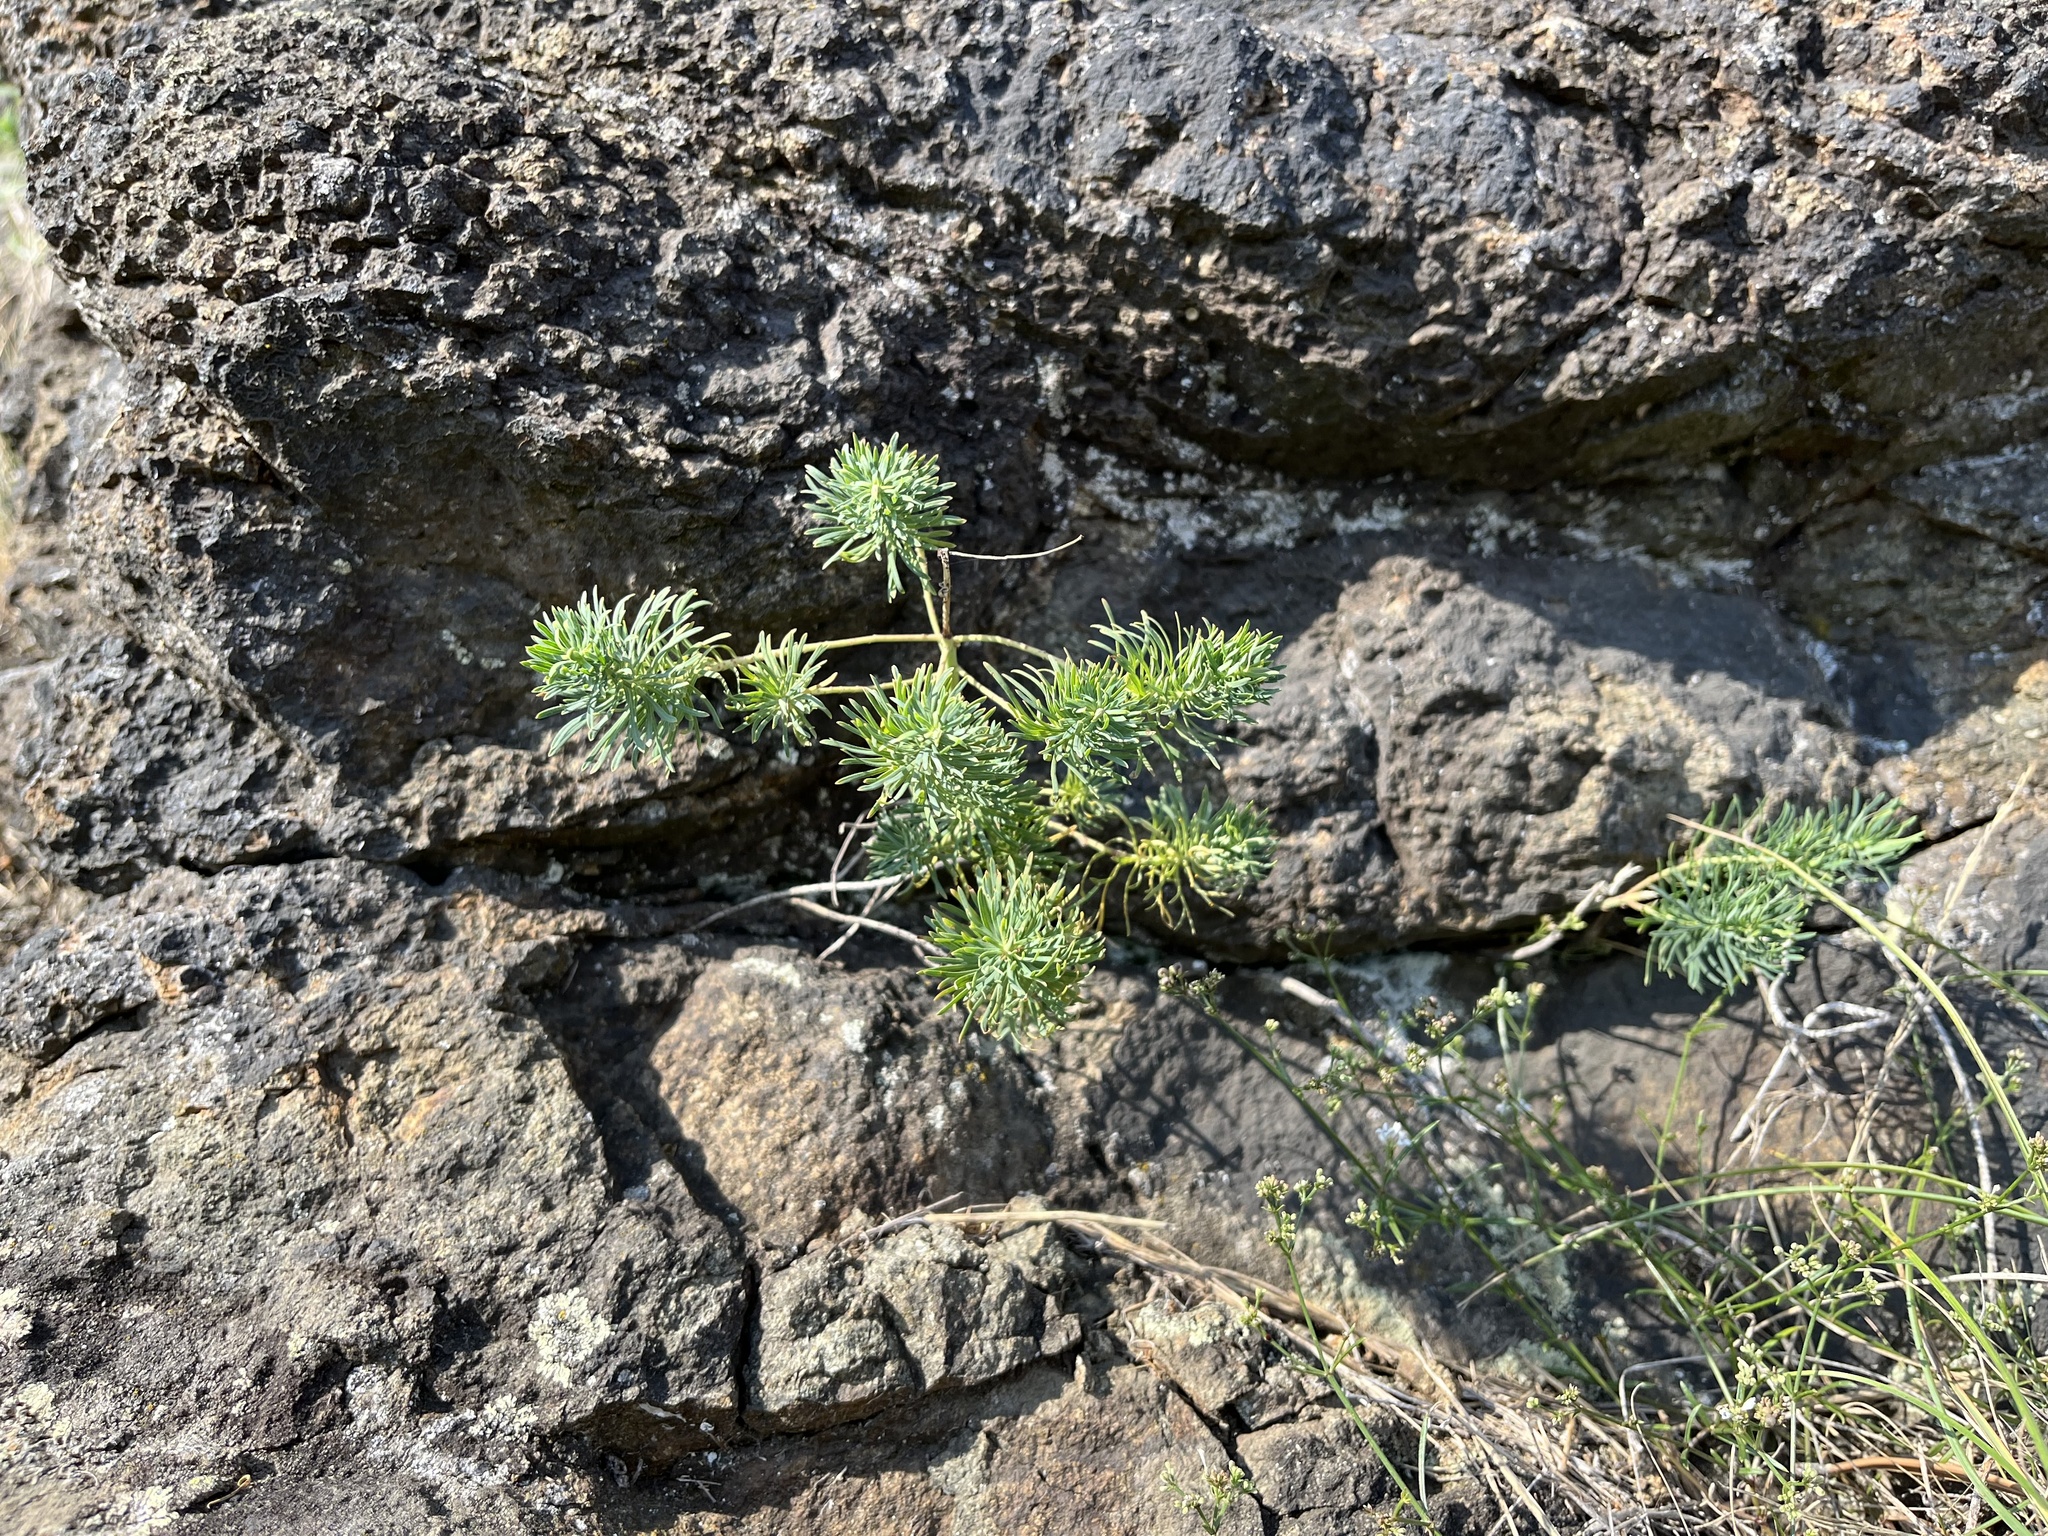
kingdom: Plantae
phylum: Tracheophyta
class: Magnoliopsida
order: Malpighiales
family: Euphorbiaceae
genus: Euphorbia
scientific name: Euphorbia cyparissias
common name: Cypress spurge
